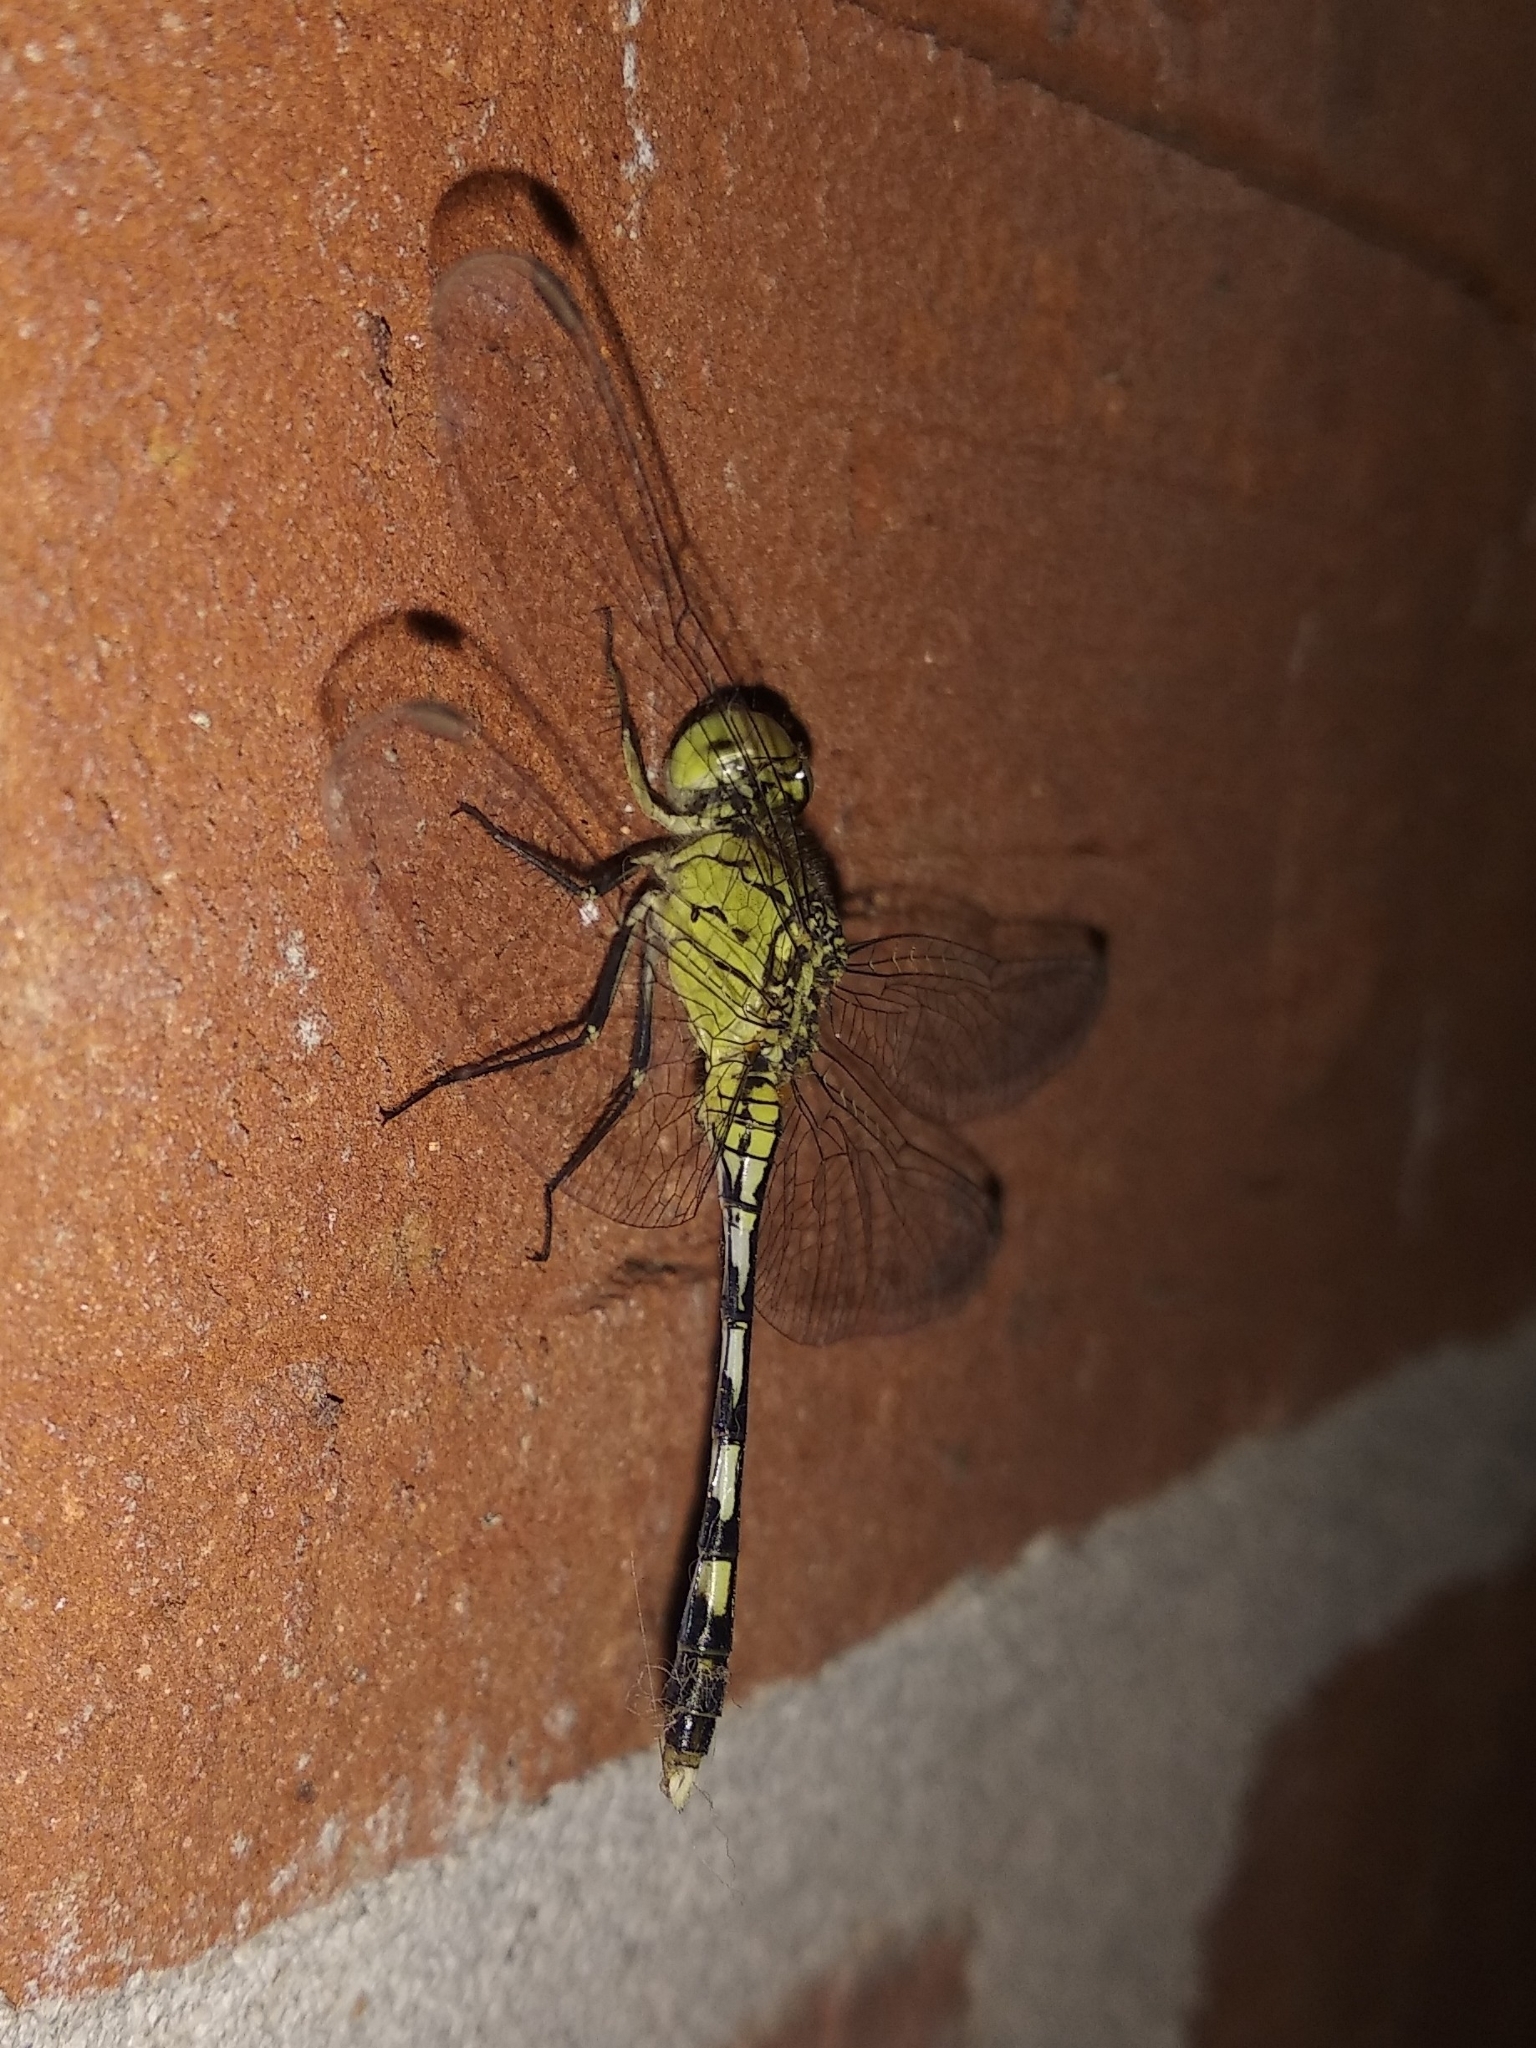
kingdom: Animalia
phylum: Arthropoda
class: Insecta
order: Odonata
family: Libellulidae
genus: Diplacodes
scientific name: Diplacodes trivialis
